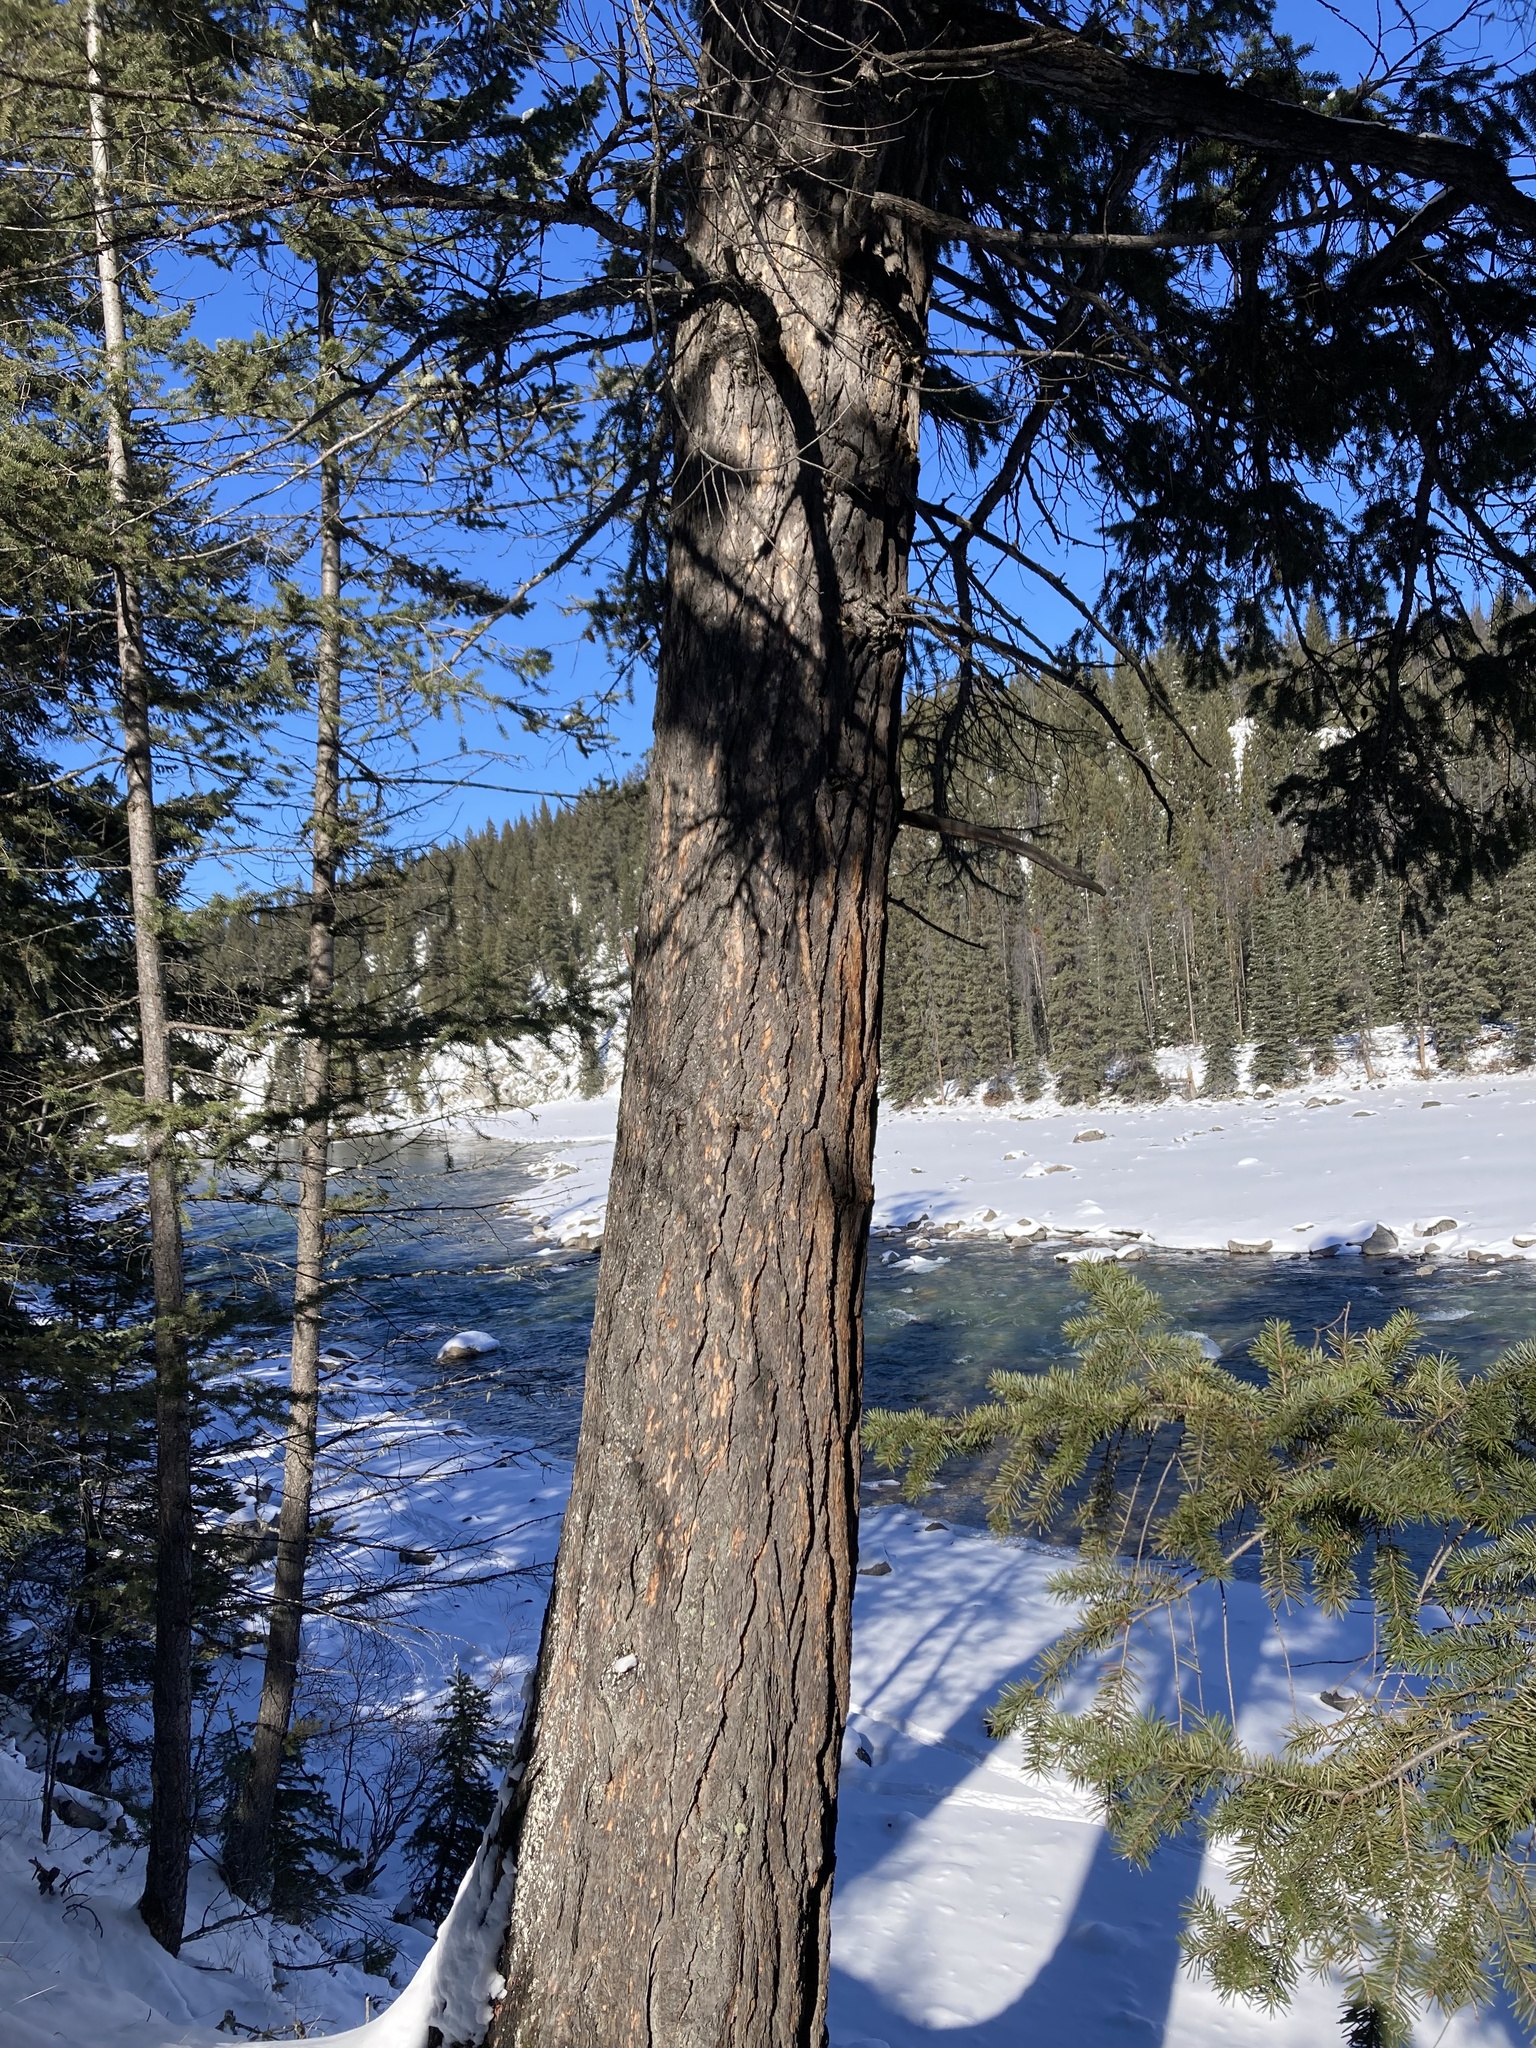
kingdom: Plantae
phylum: Tracheophyta
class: Pinopsida
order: Pinales
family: Pinaceae
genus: Pseudotsuga
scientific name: Pseudotsuga menziesii
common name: Douglas fir
